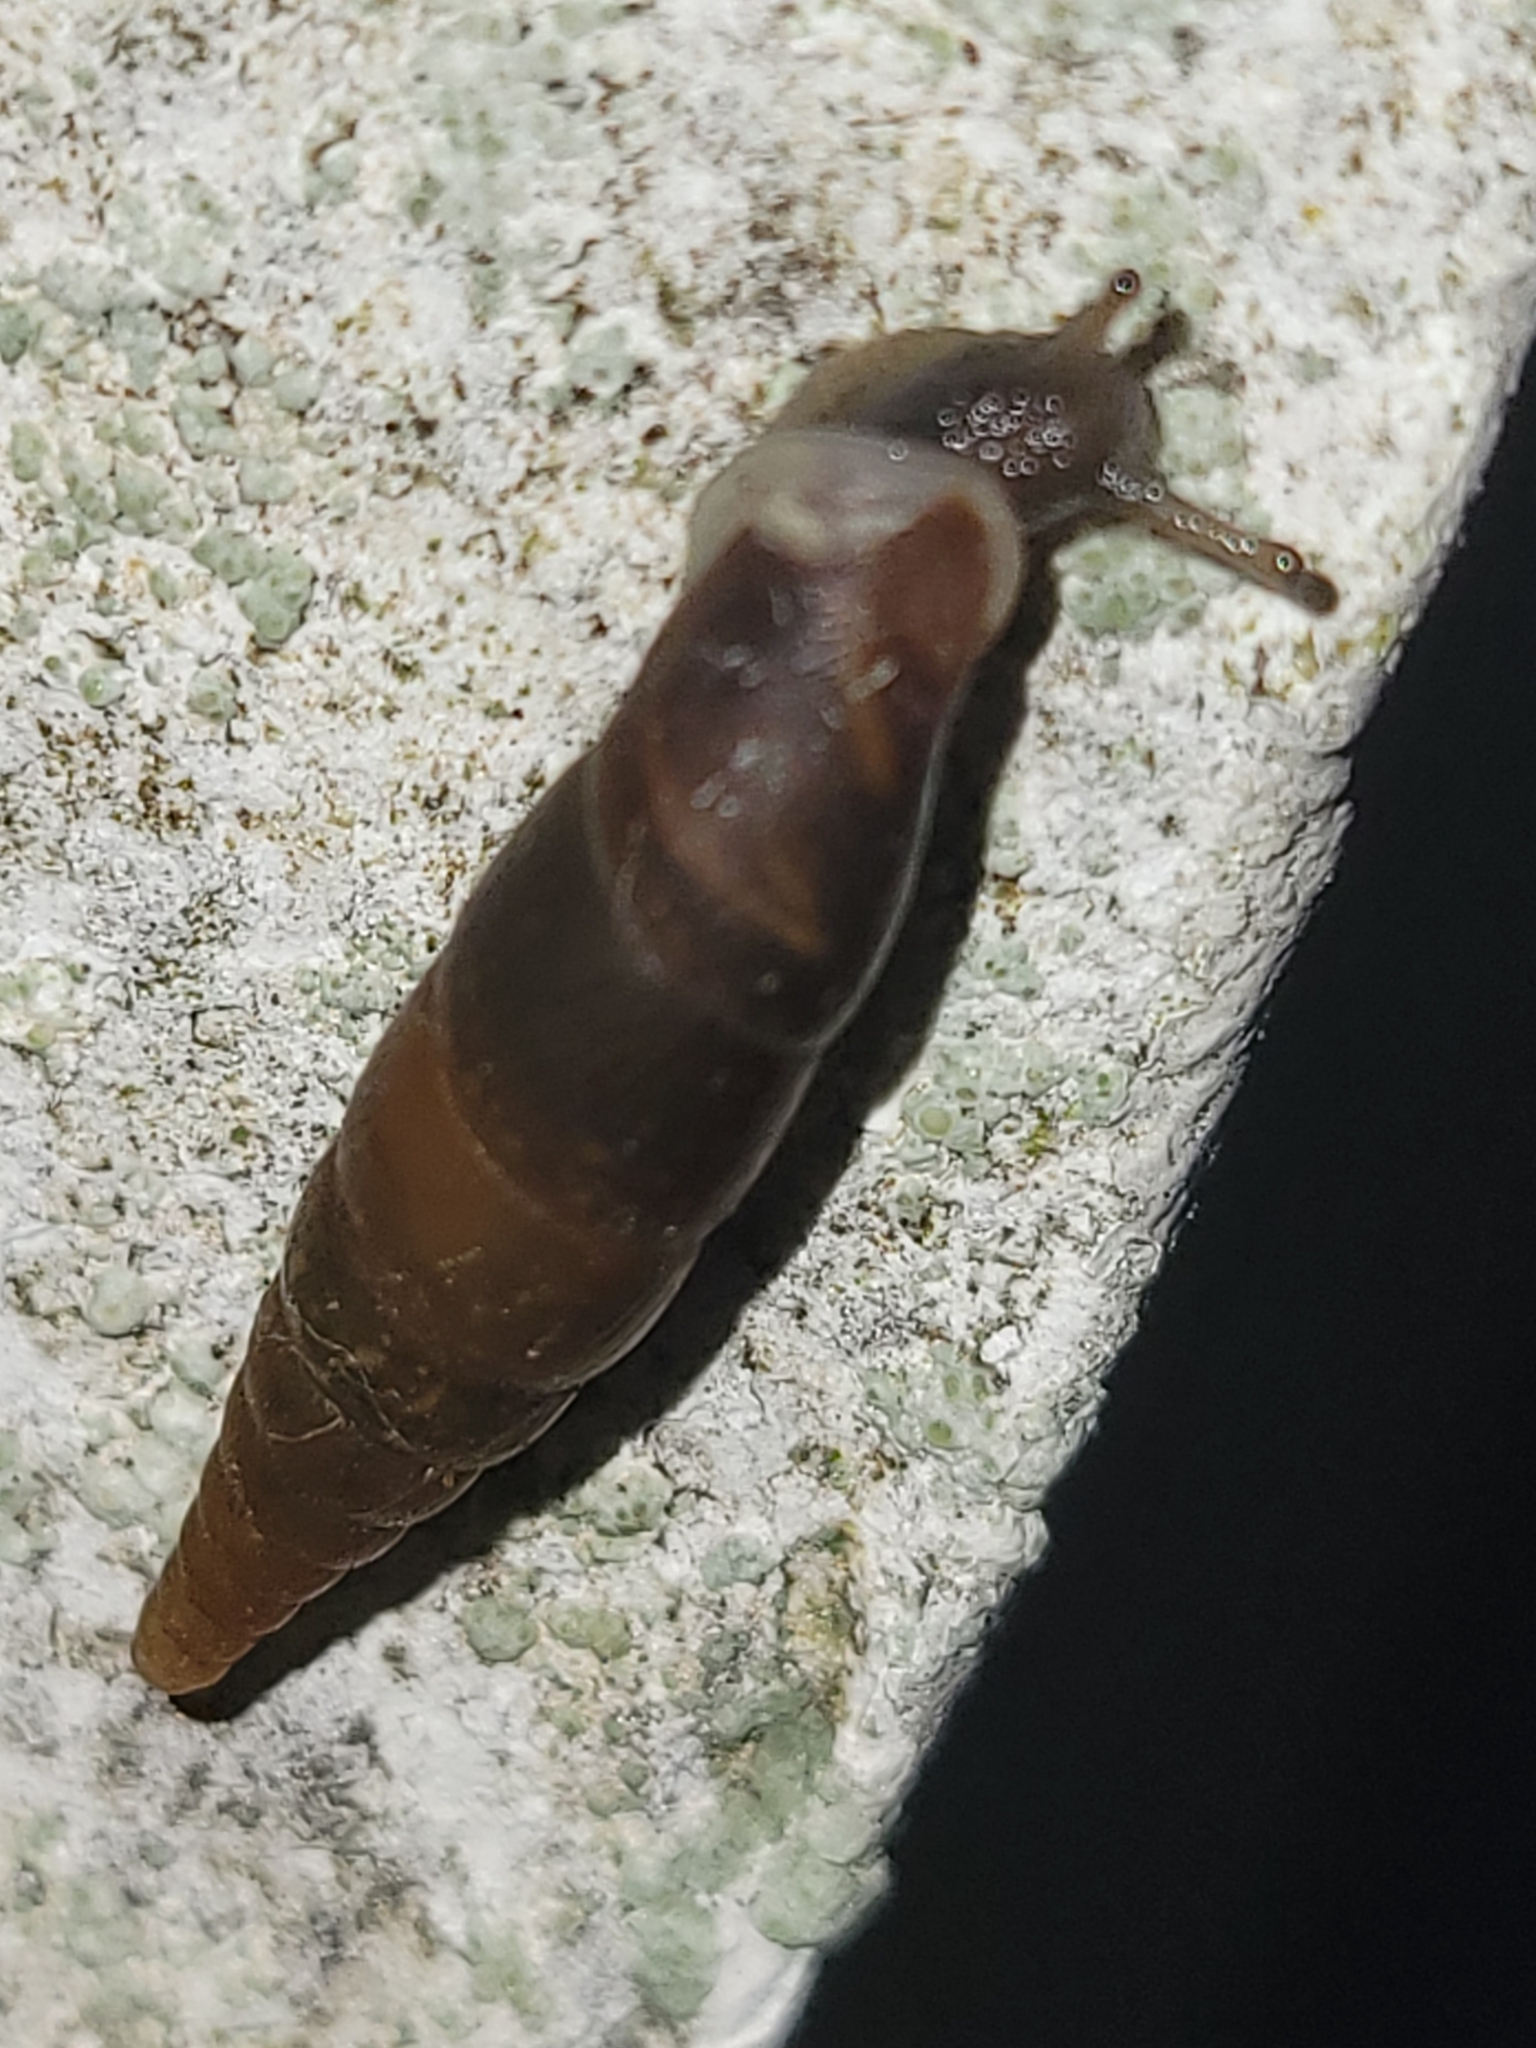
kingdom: Animalia
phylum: Mollusca
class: Gastropoda
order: Stylommatophora
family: Clausiliidae
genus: Cochlodina
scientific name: Cochlodina laminata
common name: Plaited door snail
